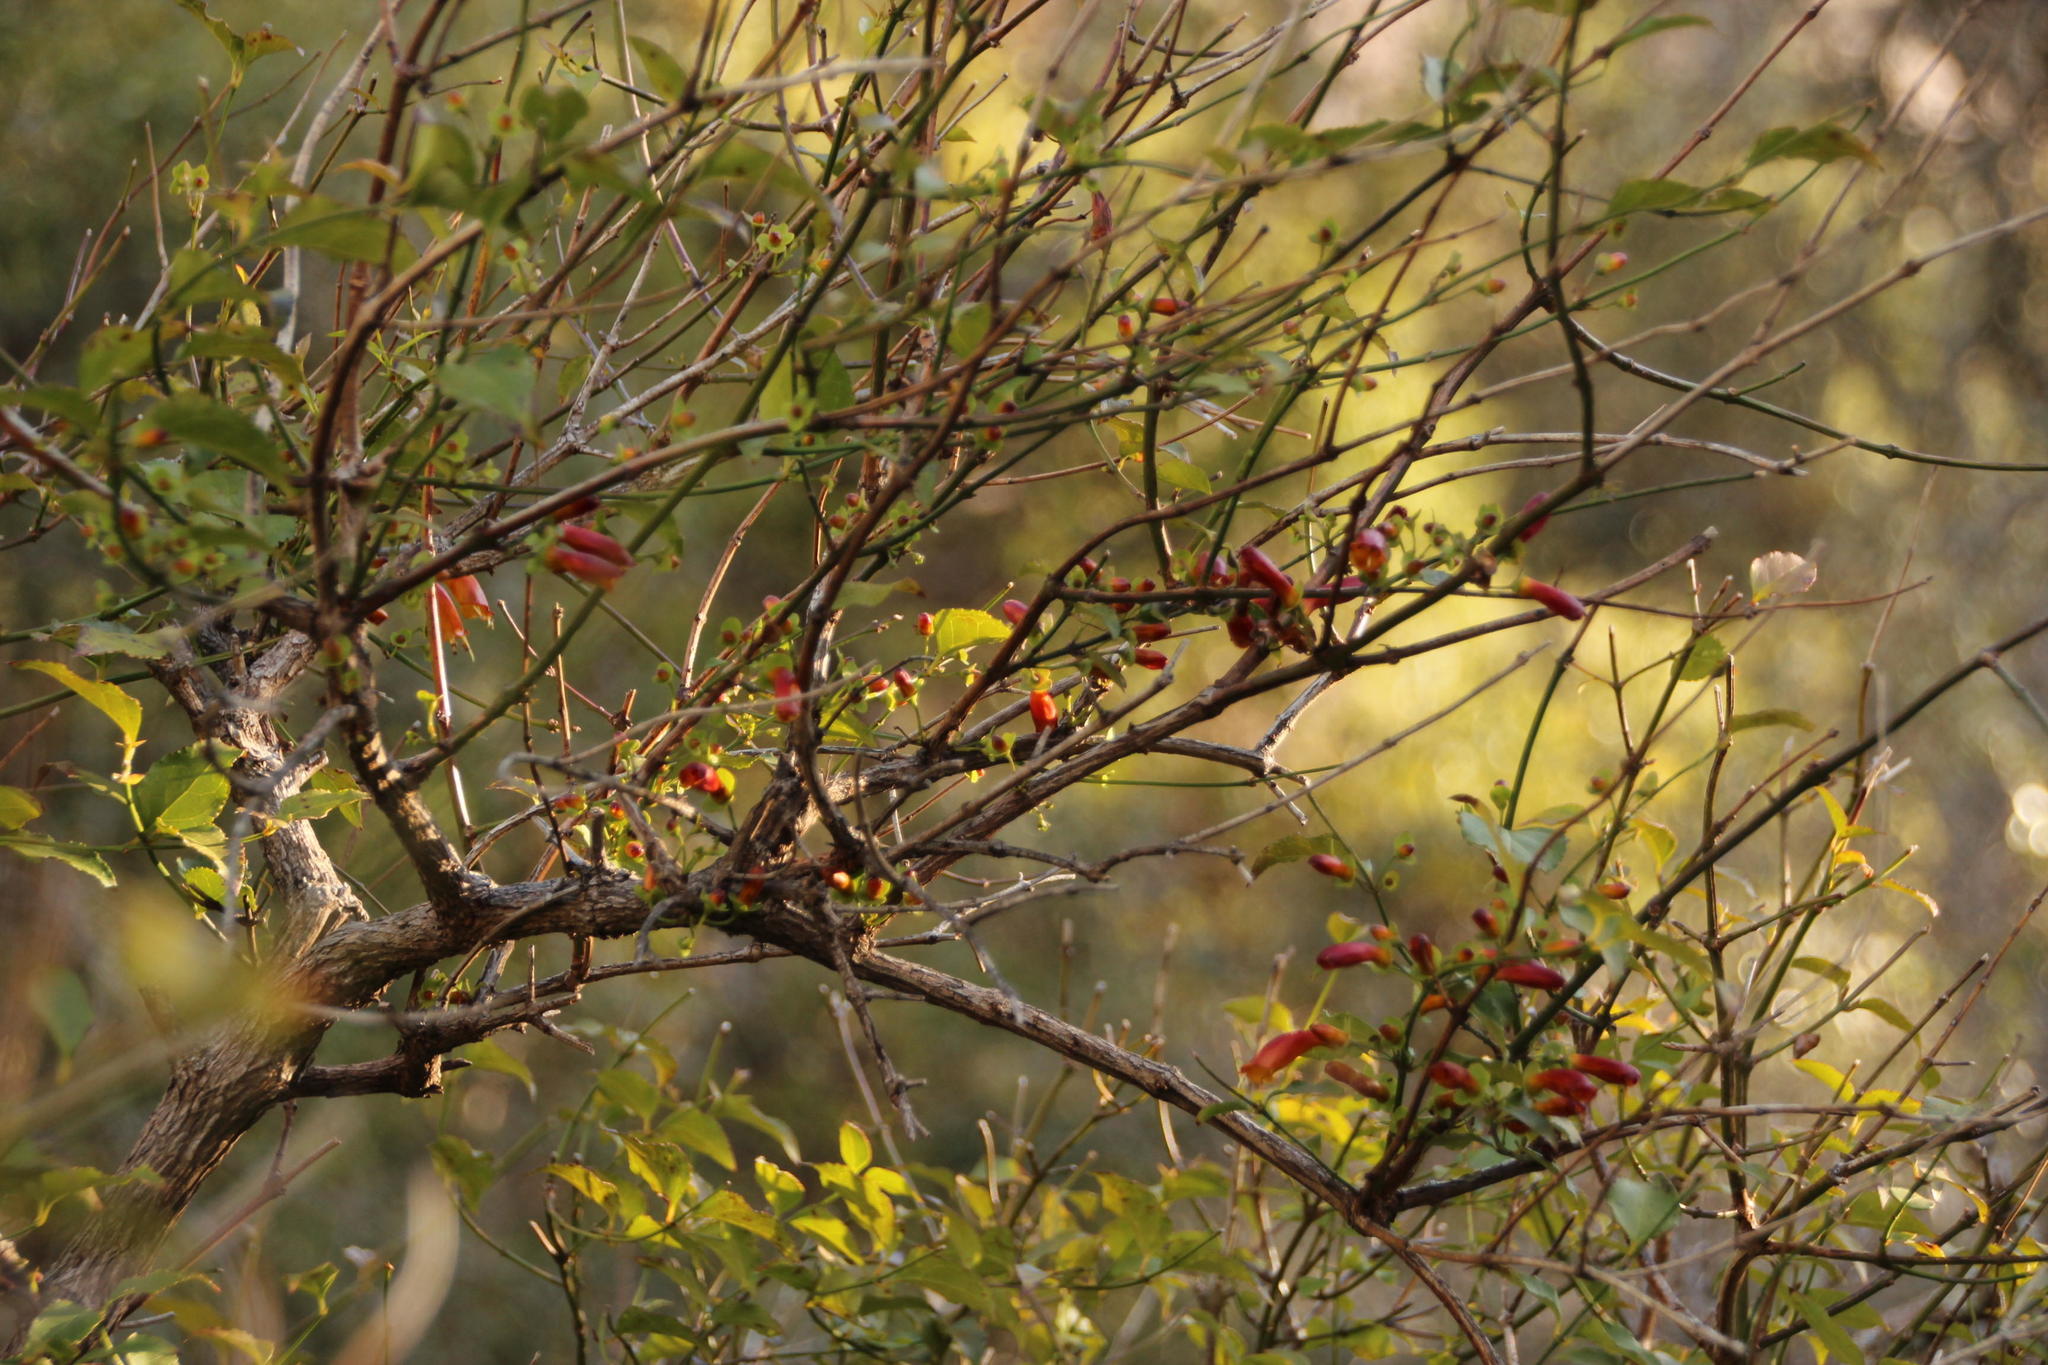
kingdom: Plantae
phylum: Tracheophyta
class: Magnoliopsida
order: Lamiales
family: Stilbaceae
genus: Halleria
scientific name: Halleria lucida
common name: Tree fuschia
